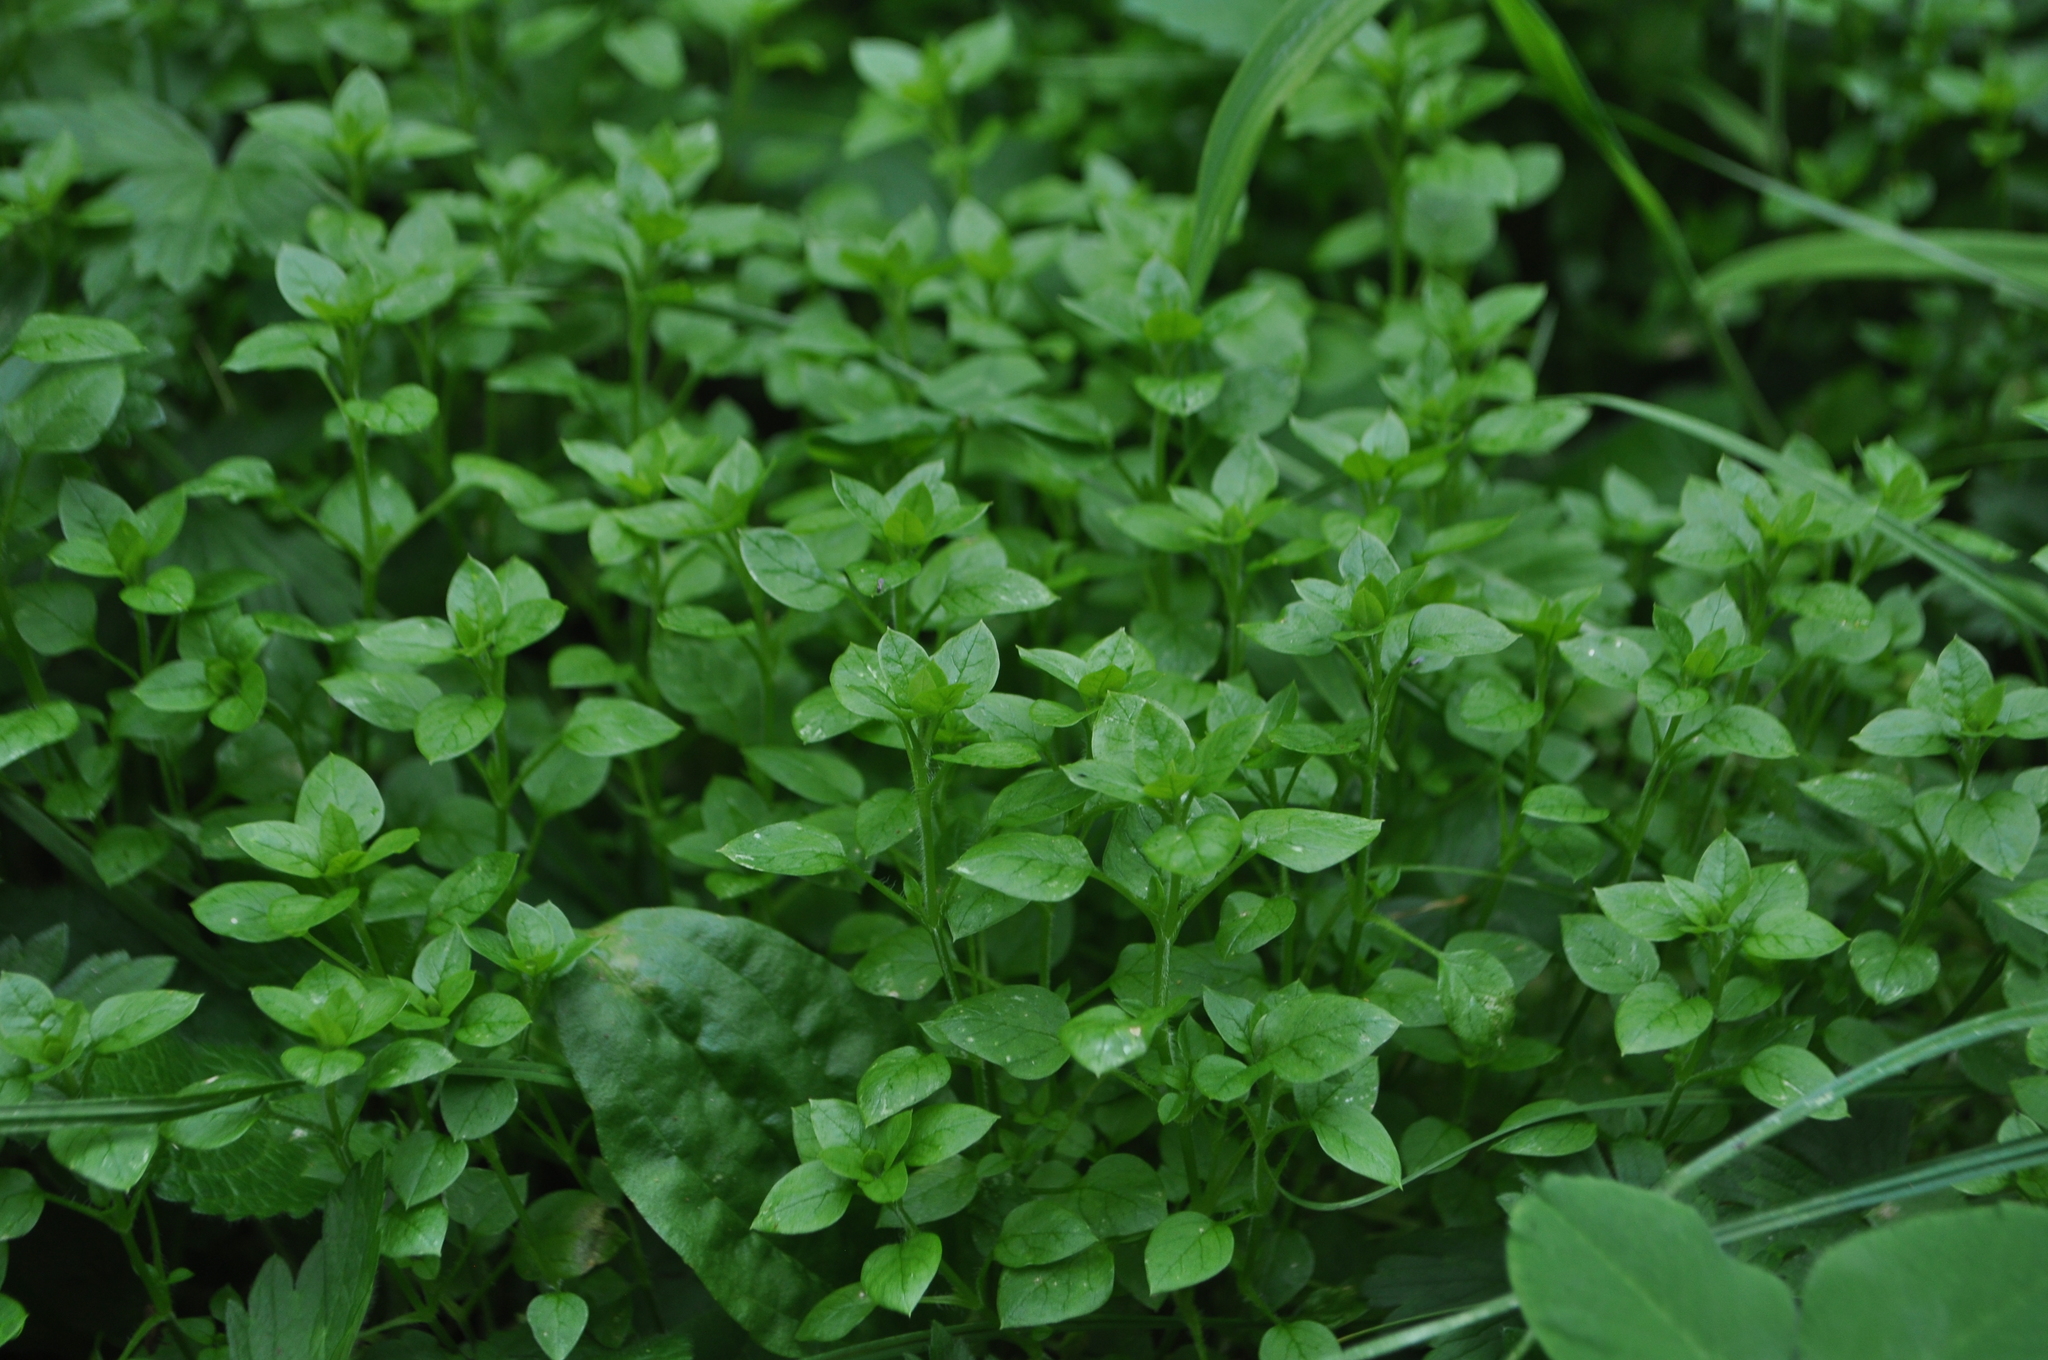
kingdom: Plantae
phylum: Tracheophyta
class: Magnoliopsida
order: Caryophyllales
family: Caryophyllaceae
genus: Stellaria
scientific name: Stellaria media
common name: Common chickweed
